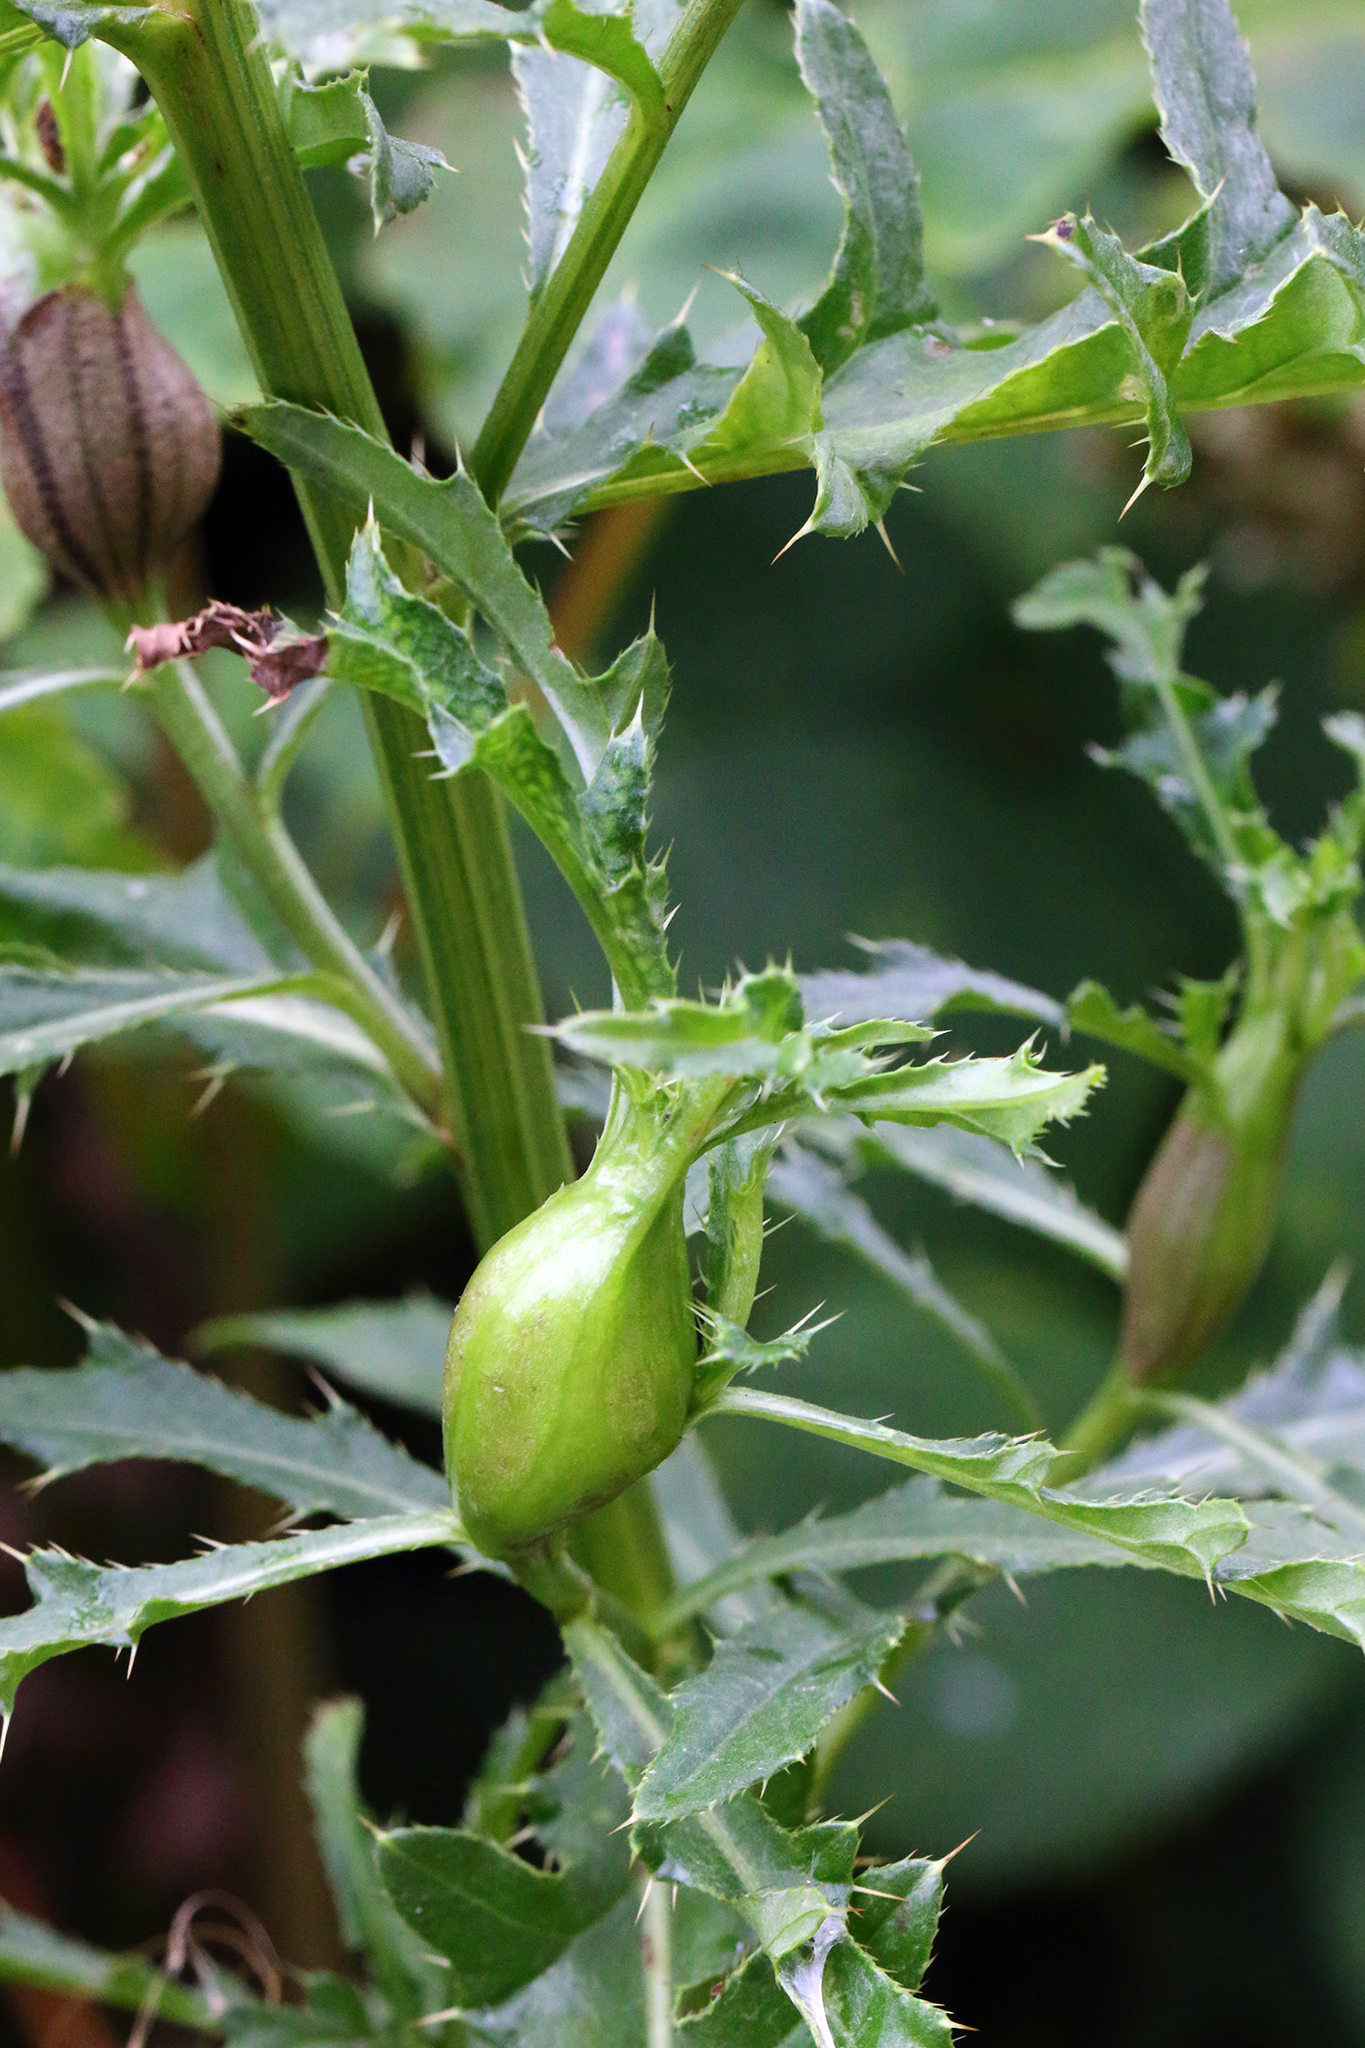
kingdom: Animalia
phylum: Arthropoda
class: Insecta
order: Diptera
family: Tephritidae
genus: Urophora
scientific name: Urophora cardui
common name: Fruit fly
